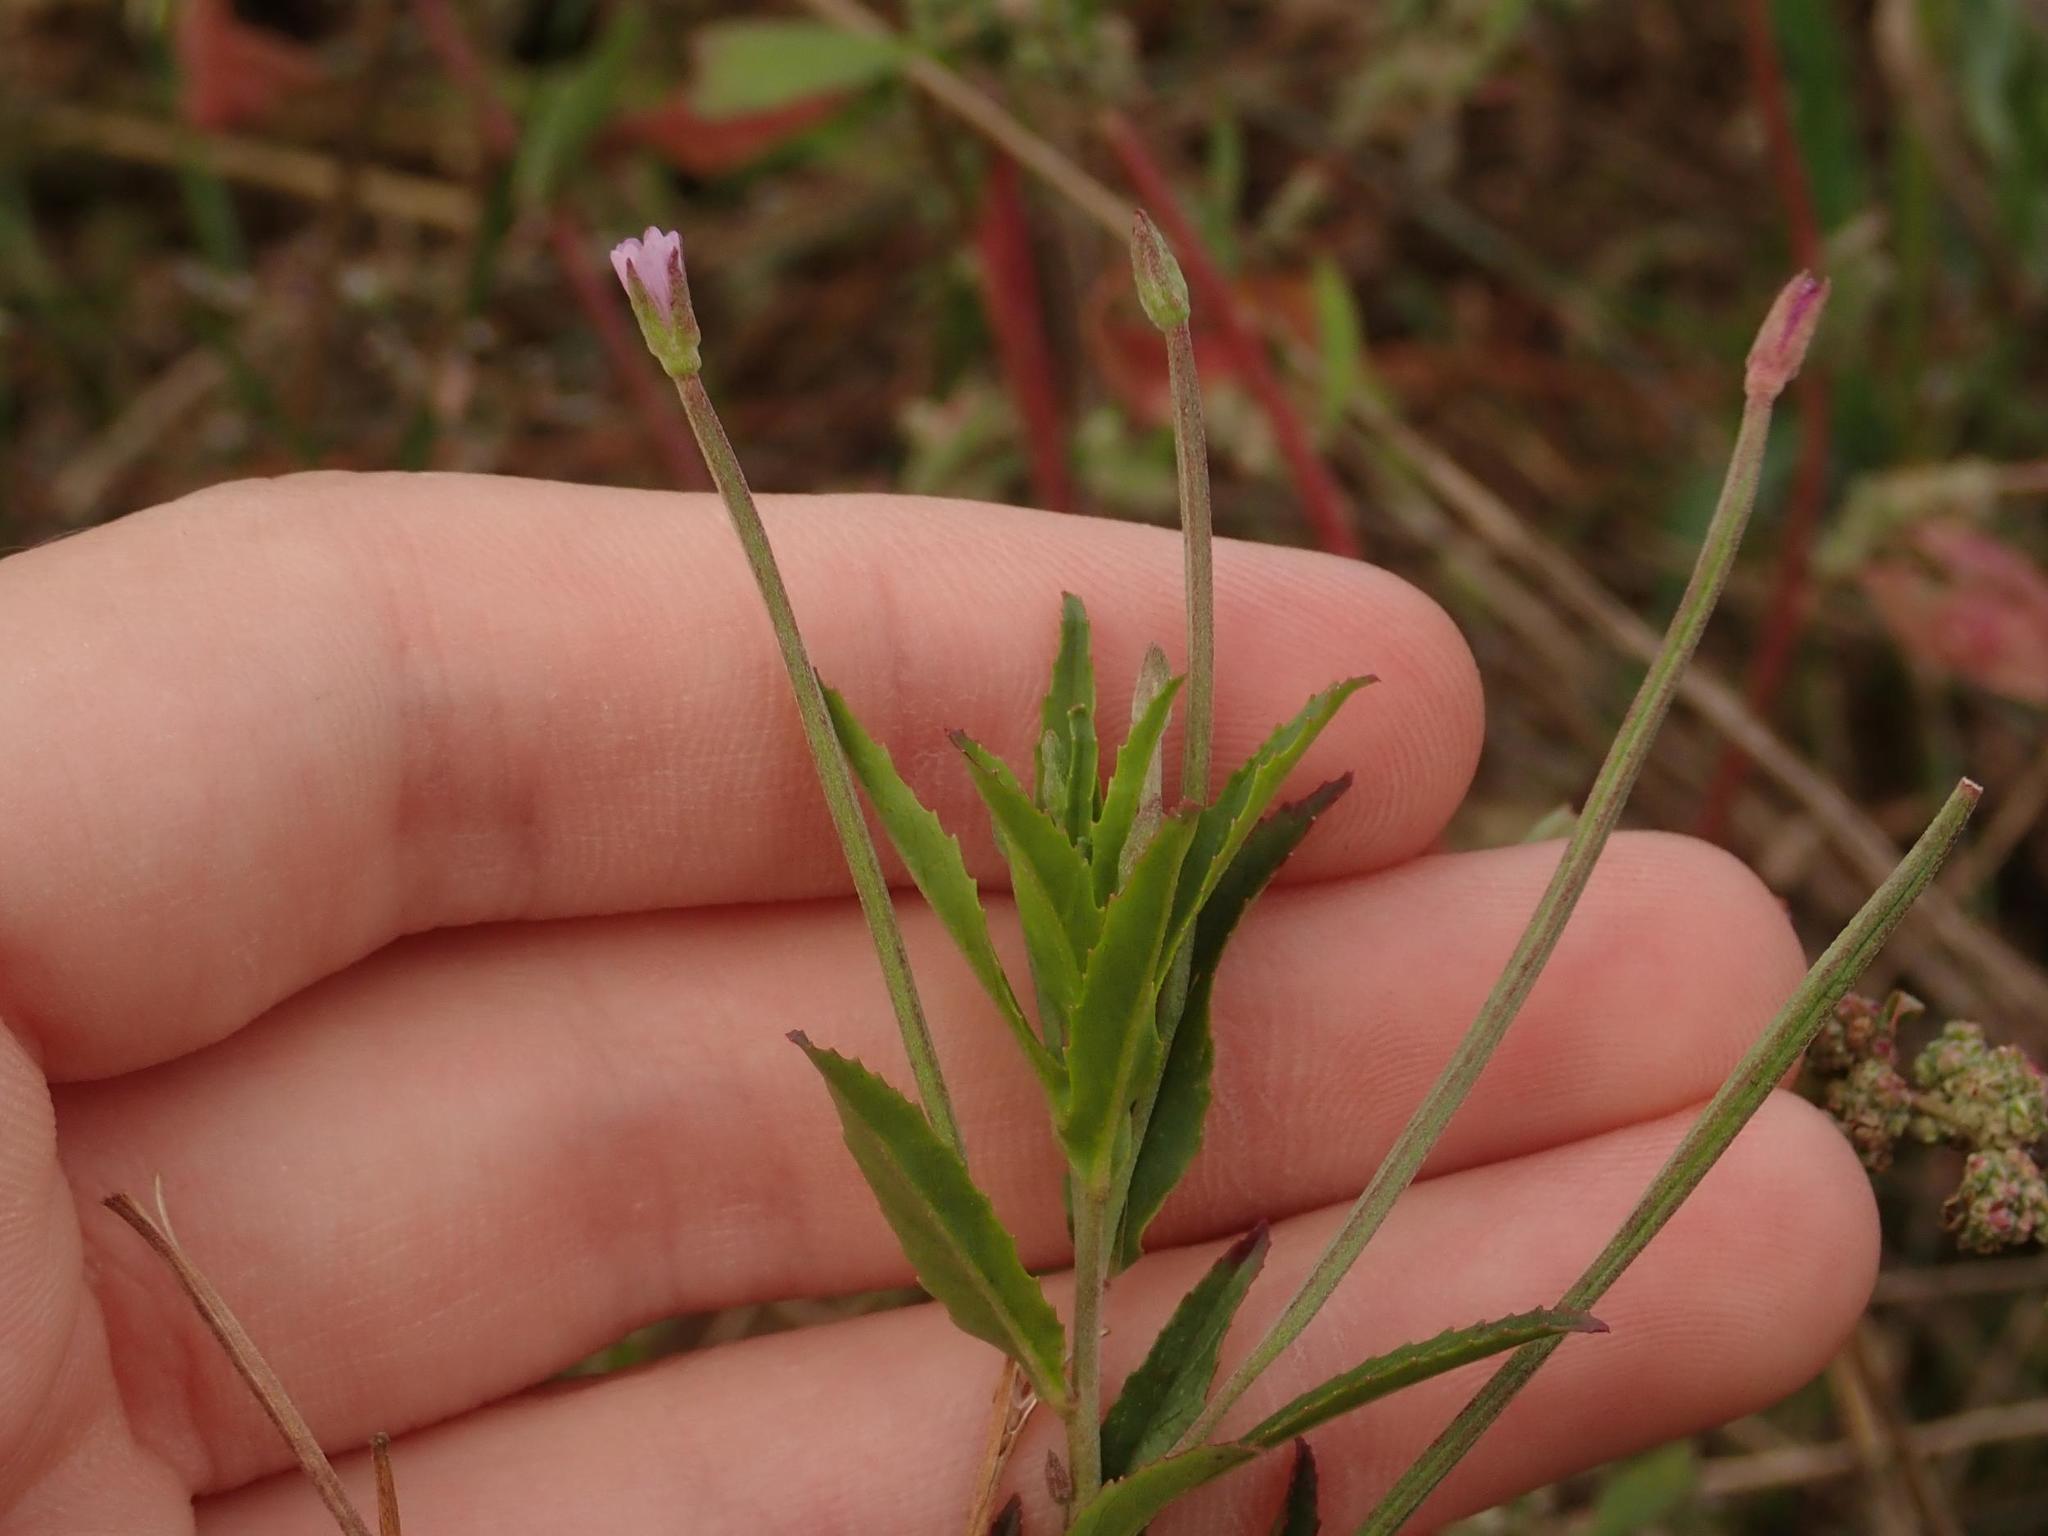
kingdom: Plantae
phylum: Tracheophyta
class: Magnoliopsida
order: Myrtales
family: Onagraceae
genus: Epilobium
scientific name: Epilobium parviflorum
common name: Hoary willowherb
